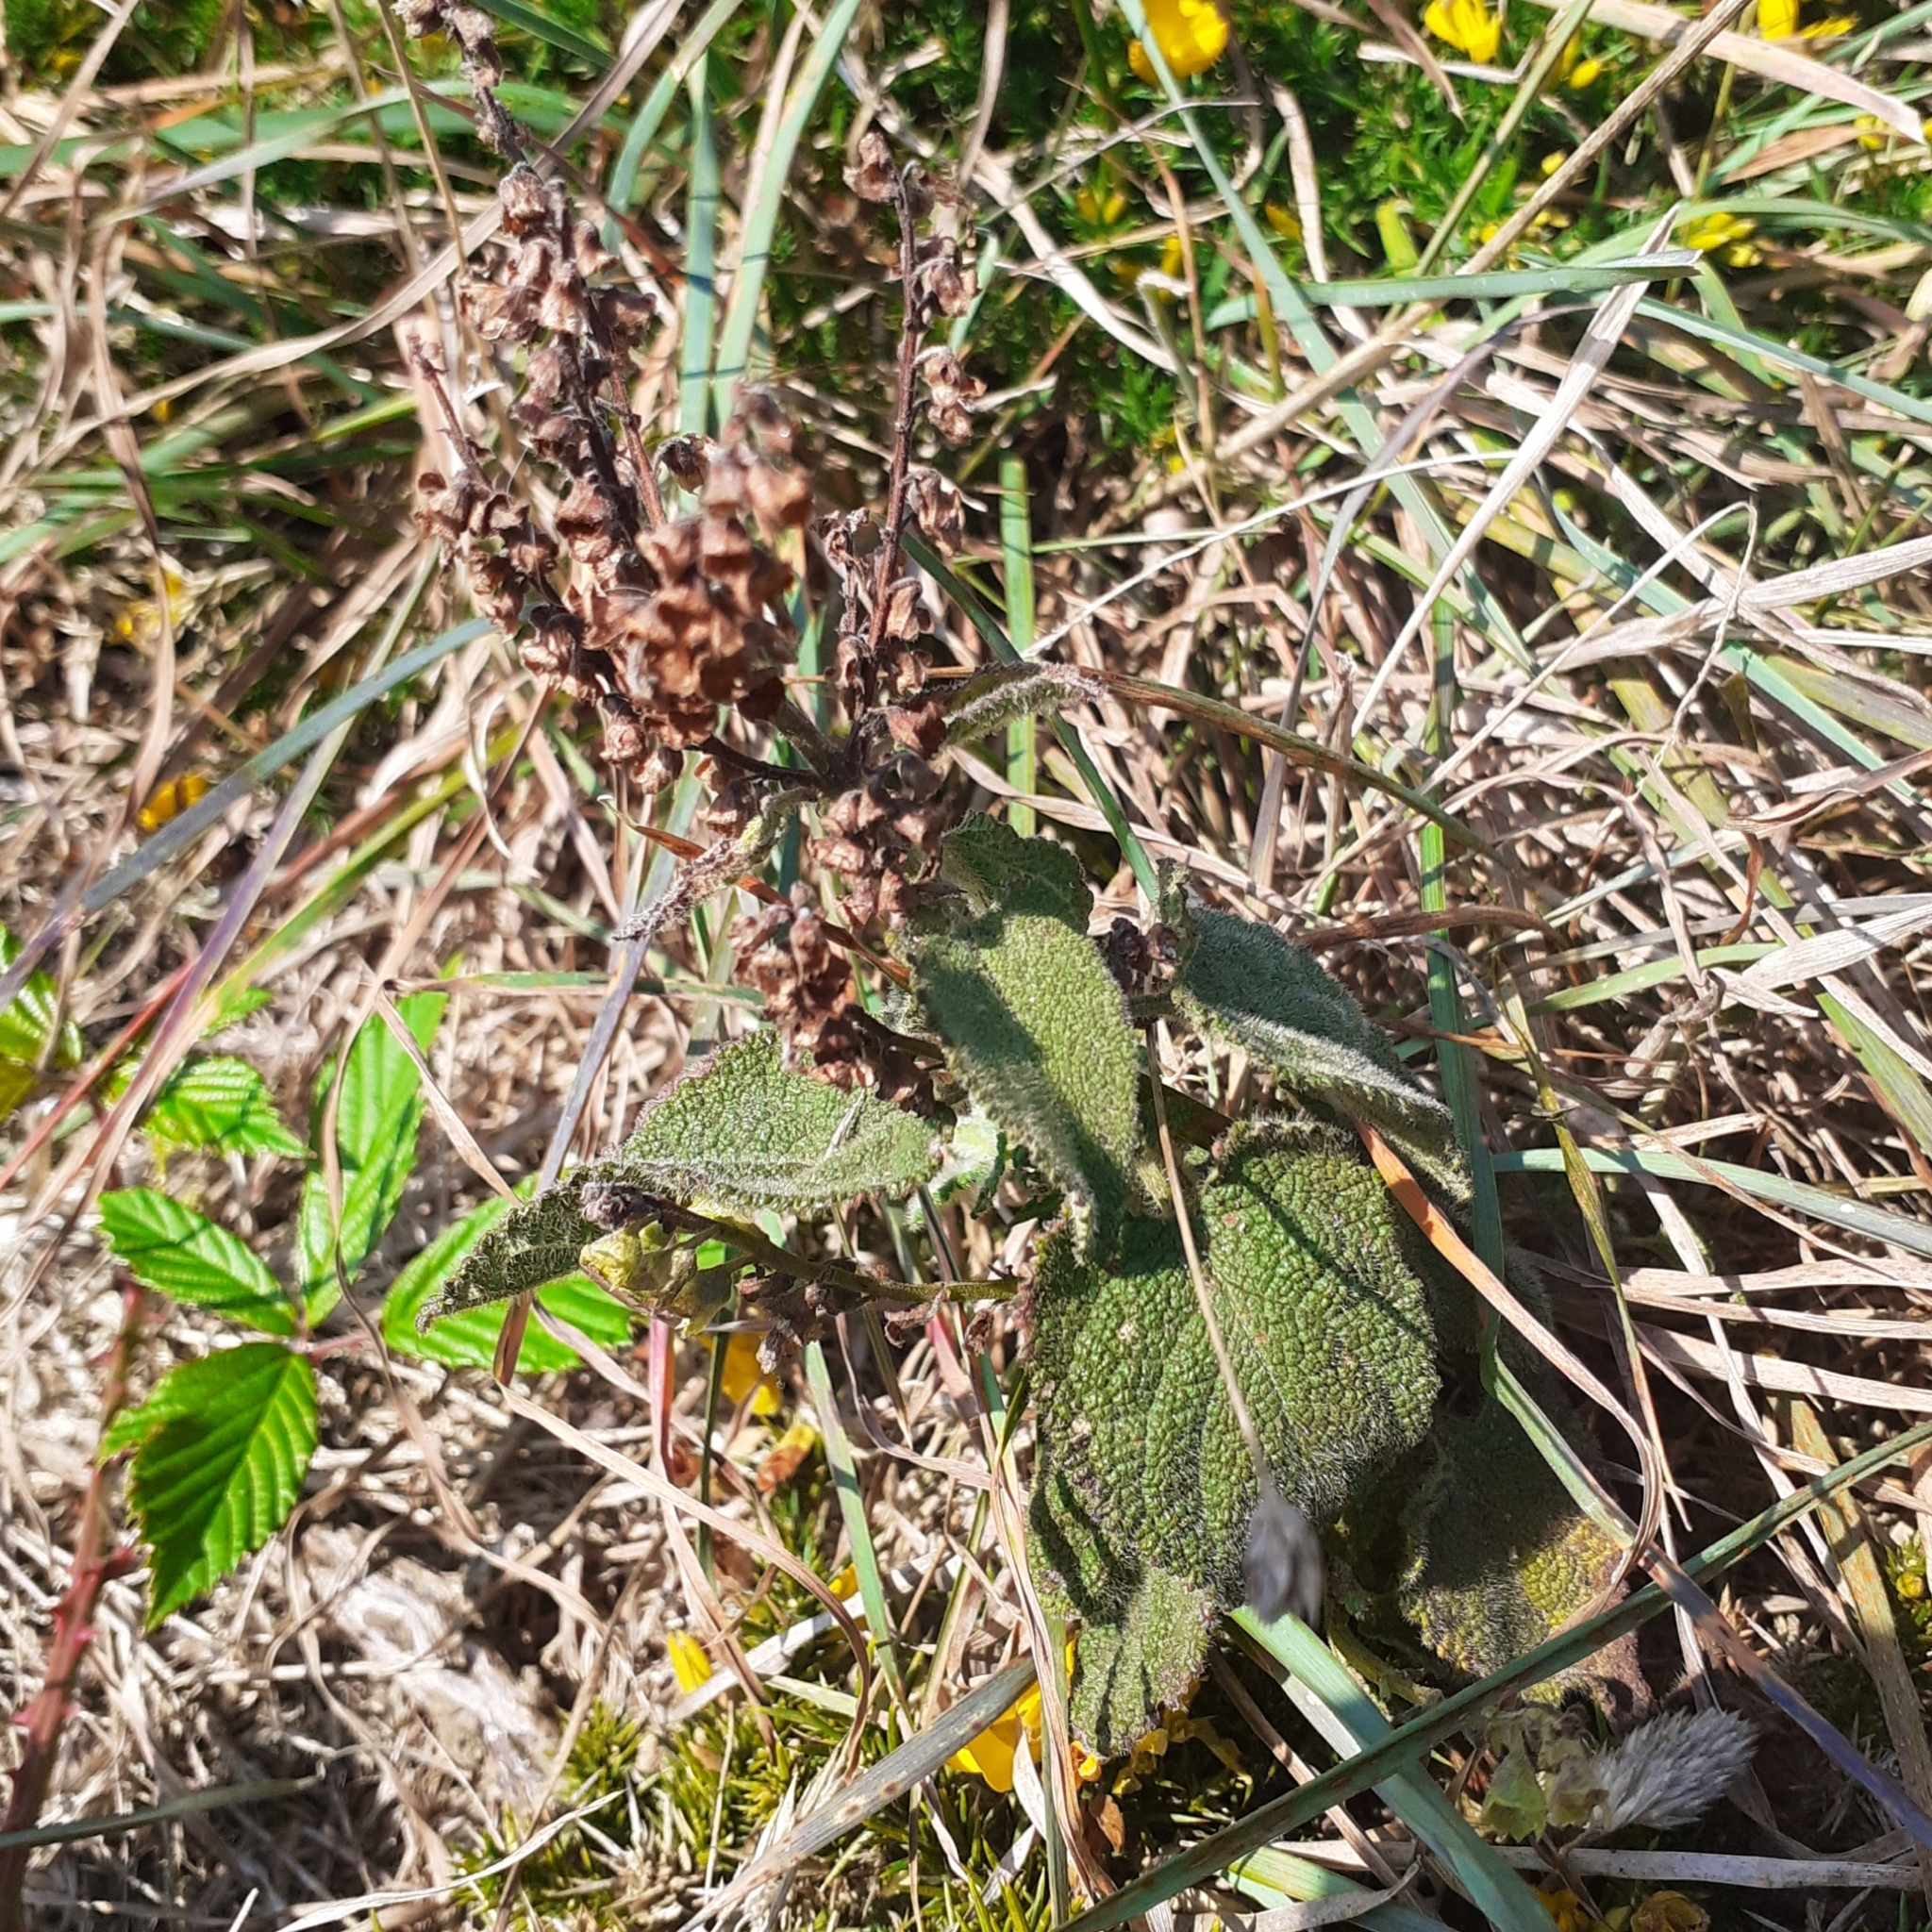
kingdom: Plantae
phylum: Tracheophyta
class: Magnoliopsida
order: Lamiales
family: Lamiaceae
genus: Teucrium
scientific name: Teucrium scorodonia
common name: Woodland germander
